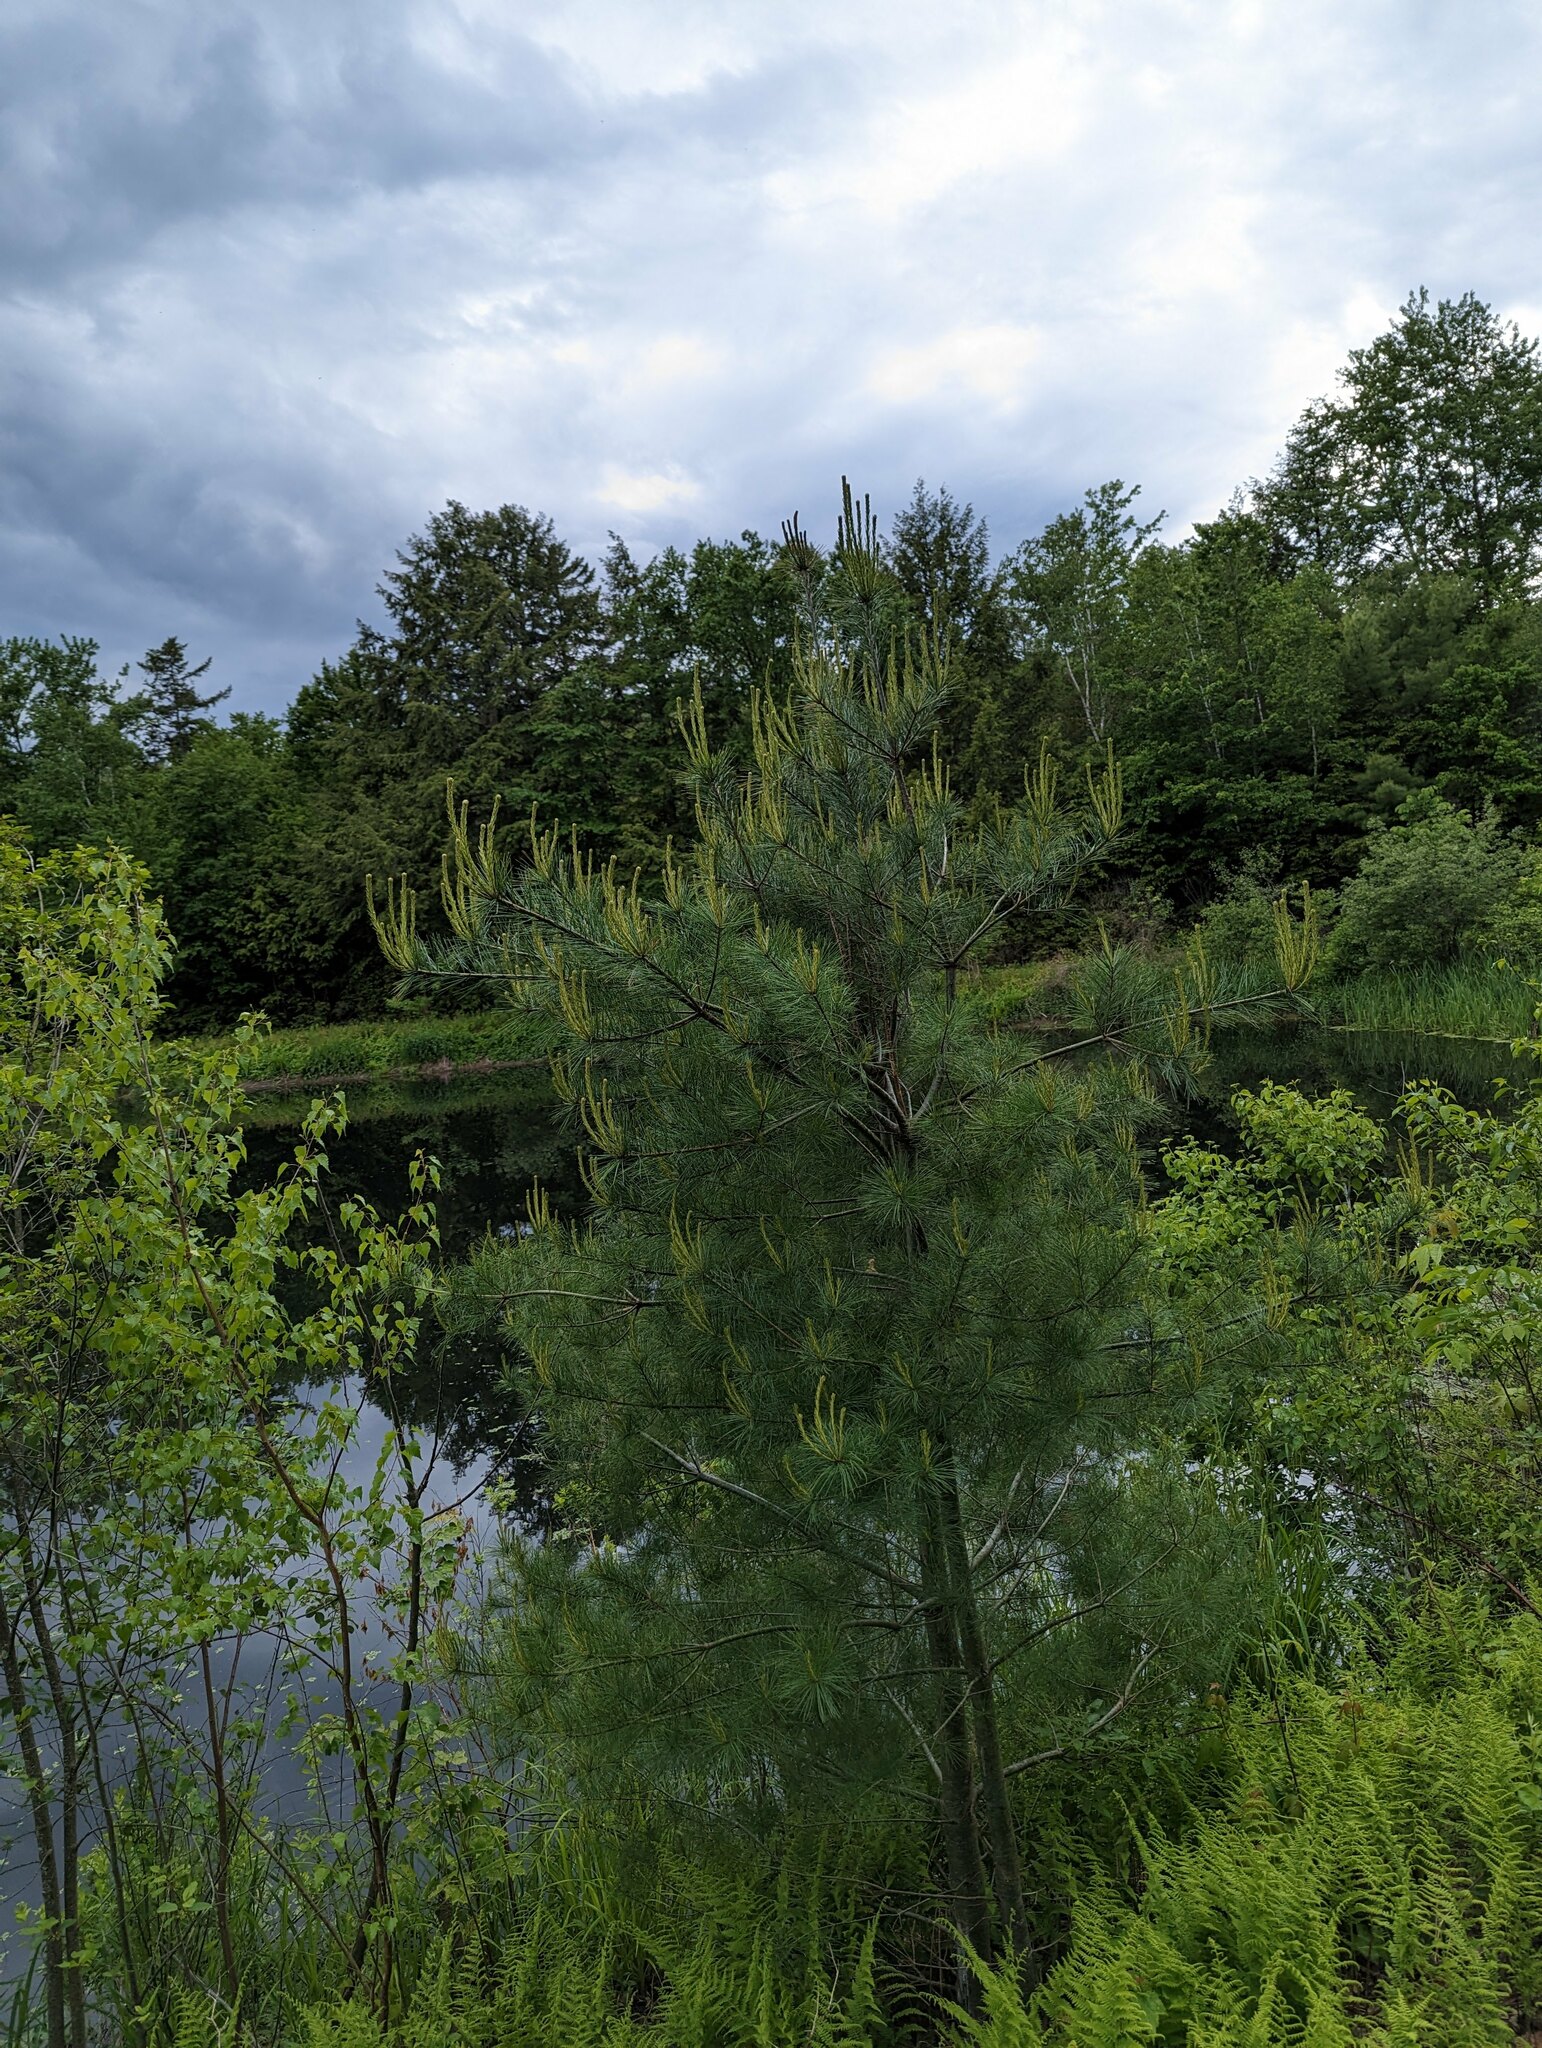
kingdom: Plantae
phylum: Tracheophyta
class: Pinopsida
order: Pinales
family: Pinaceae
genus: Pinus
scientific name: Pinus strobus
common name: Weymouth pine
